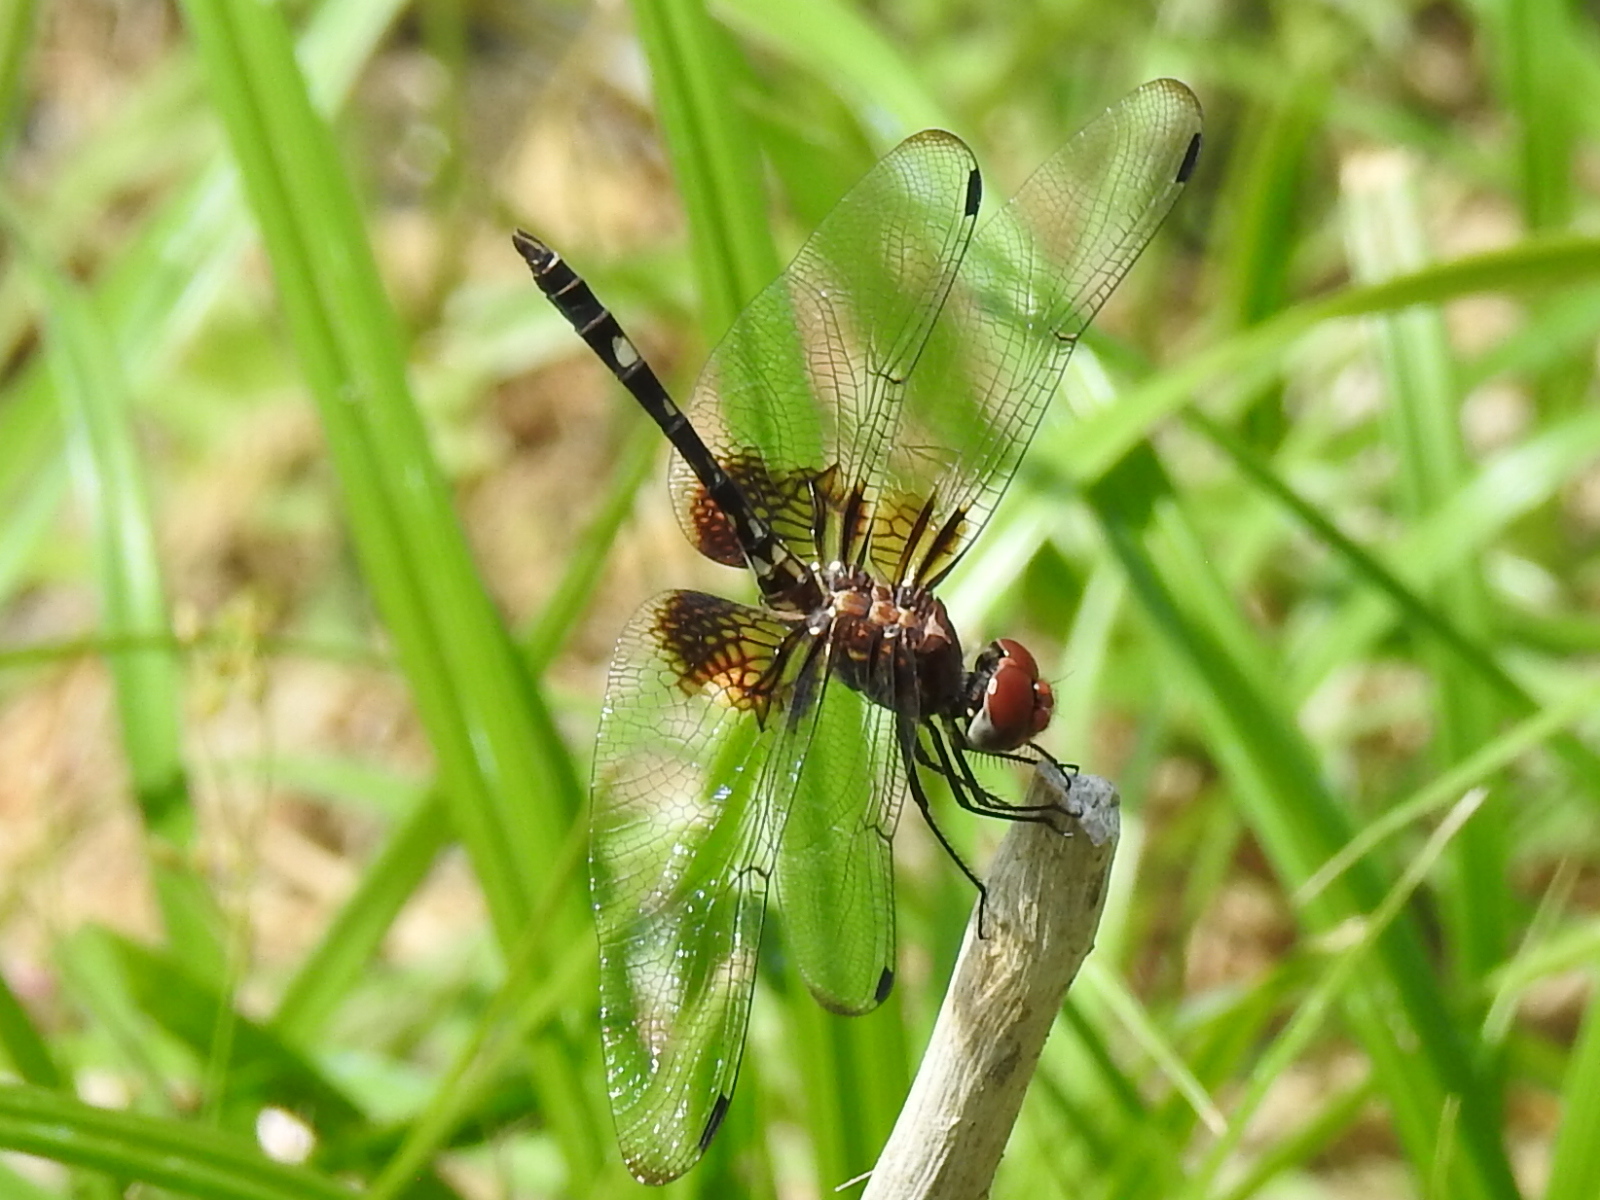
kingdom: Animalia
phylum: Arthropoda
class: Insecta
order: Odonata
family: Libellulidae
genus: Dythemis
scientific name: Dythemis fugax
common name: Checkered setwing
